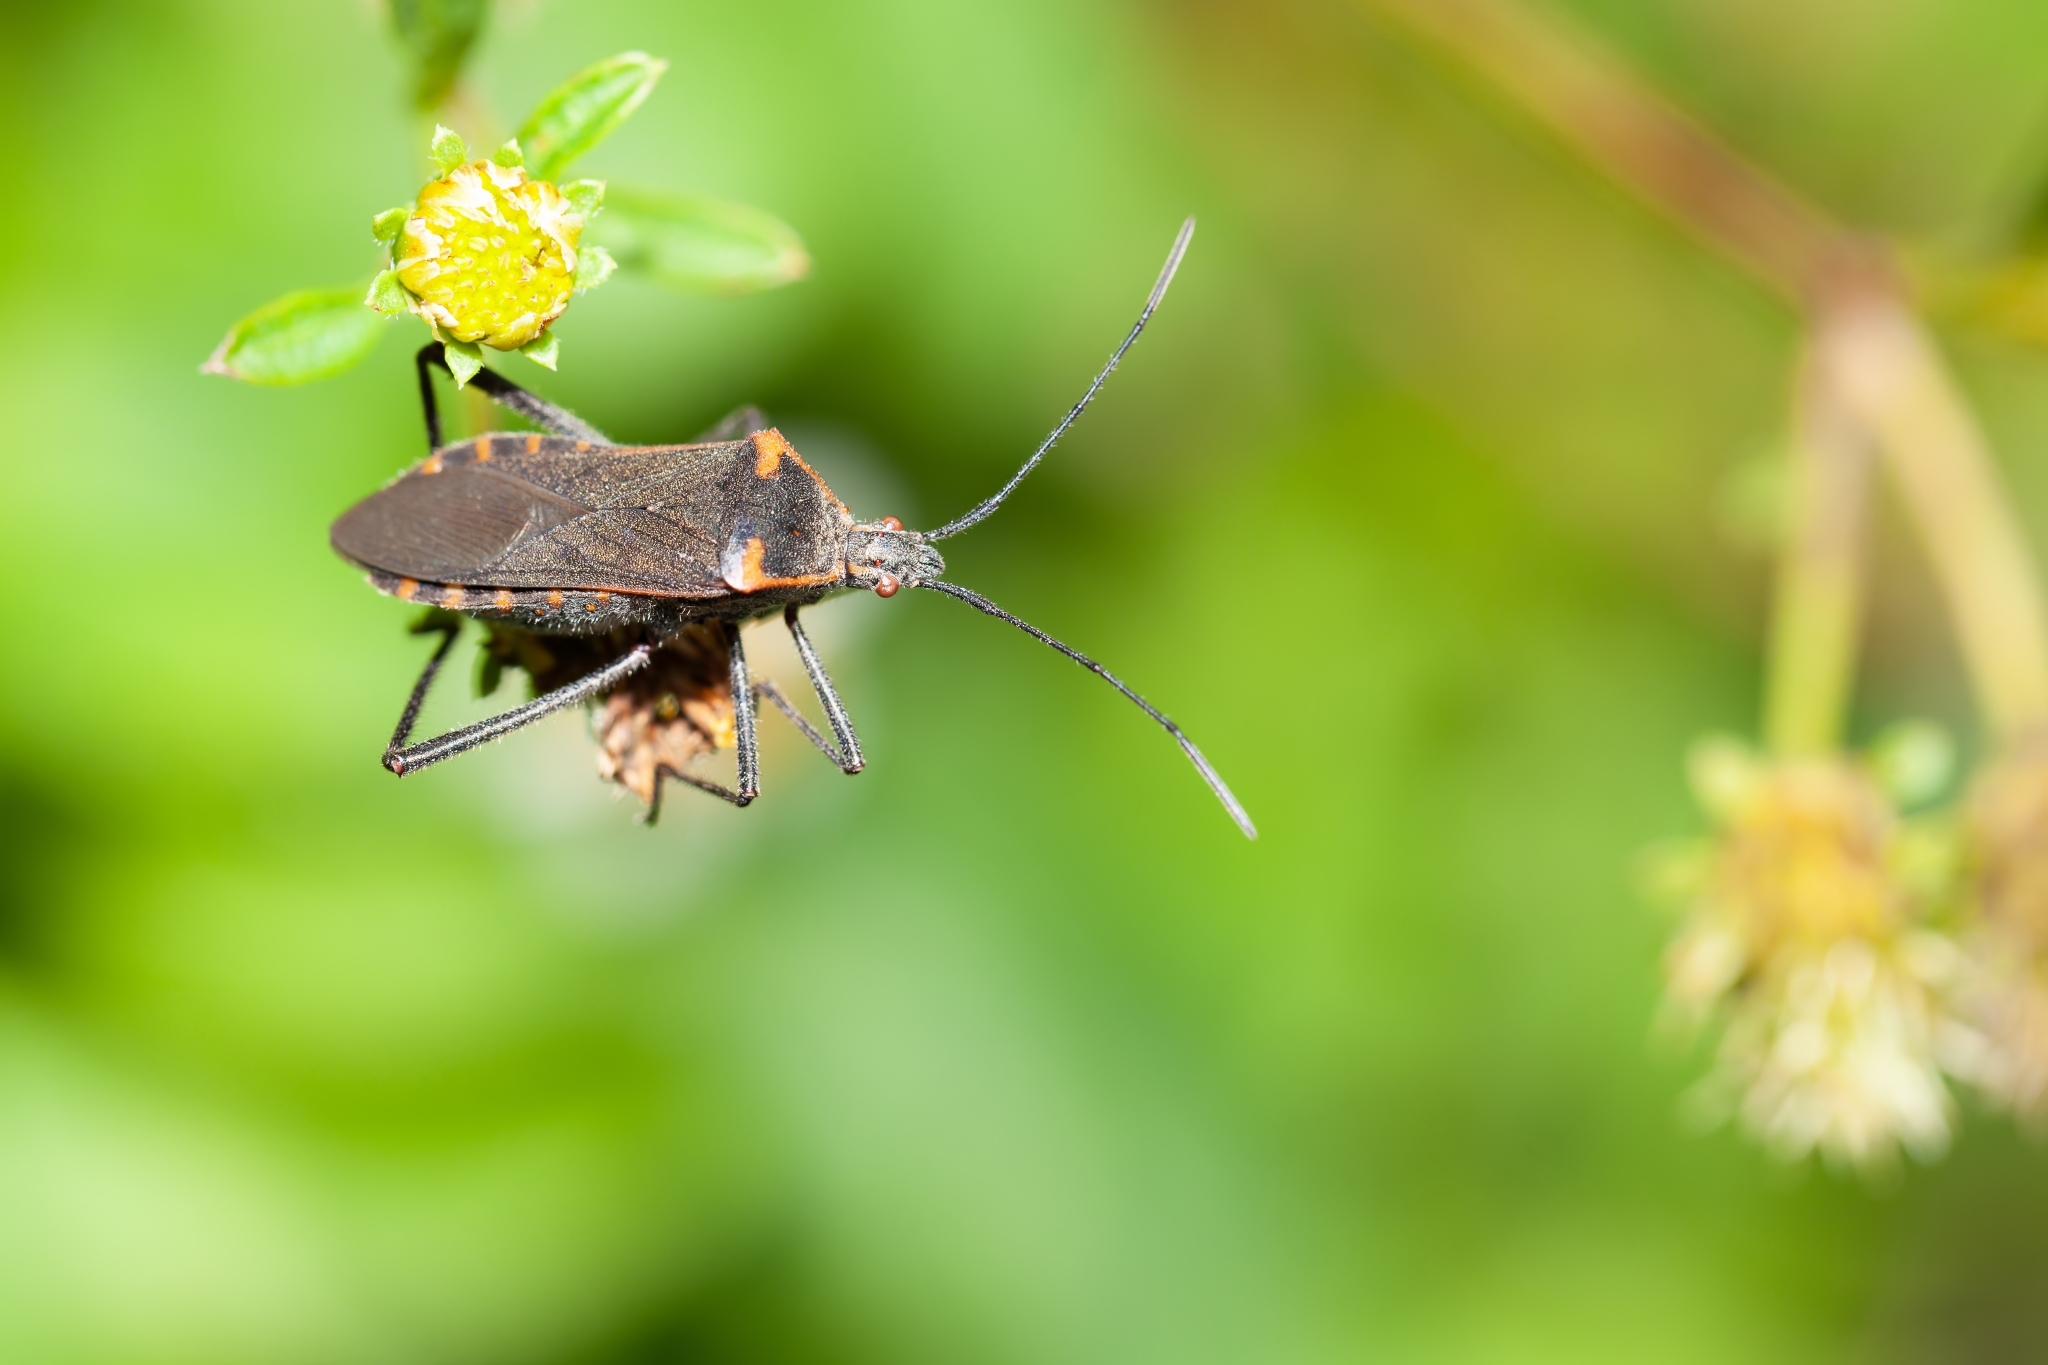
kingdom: Animalia
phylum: Arthropoda
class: Insecta
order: Hemiptera
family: Coreidae
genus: Phthiacnemia
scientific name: Phthiacnemia picta
